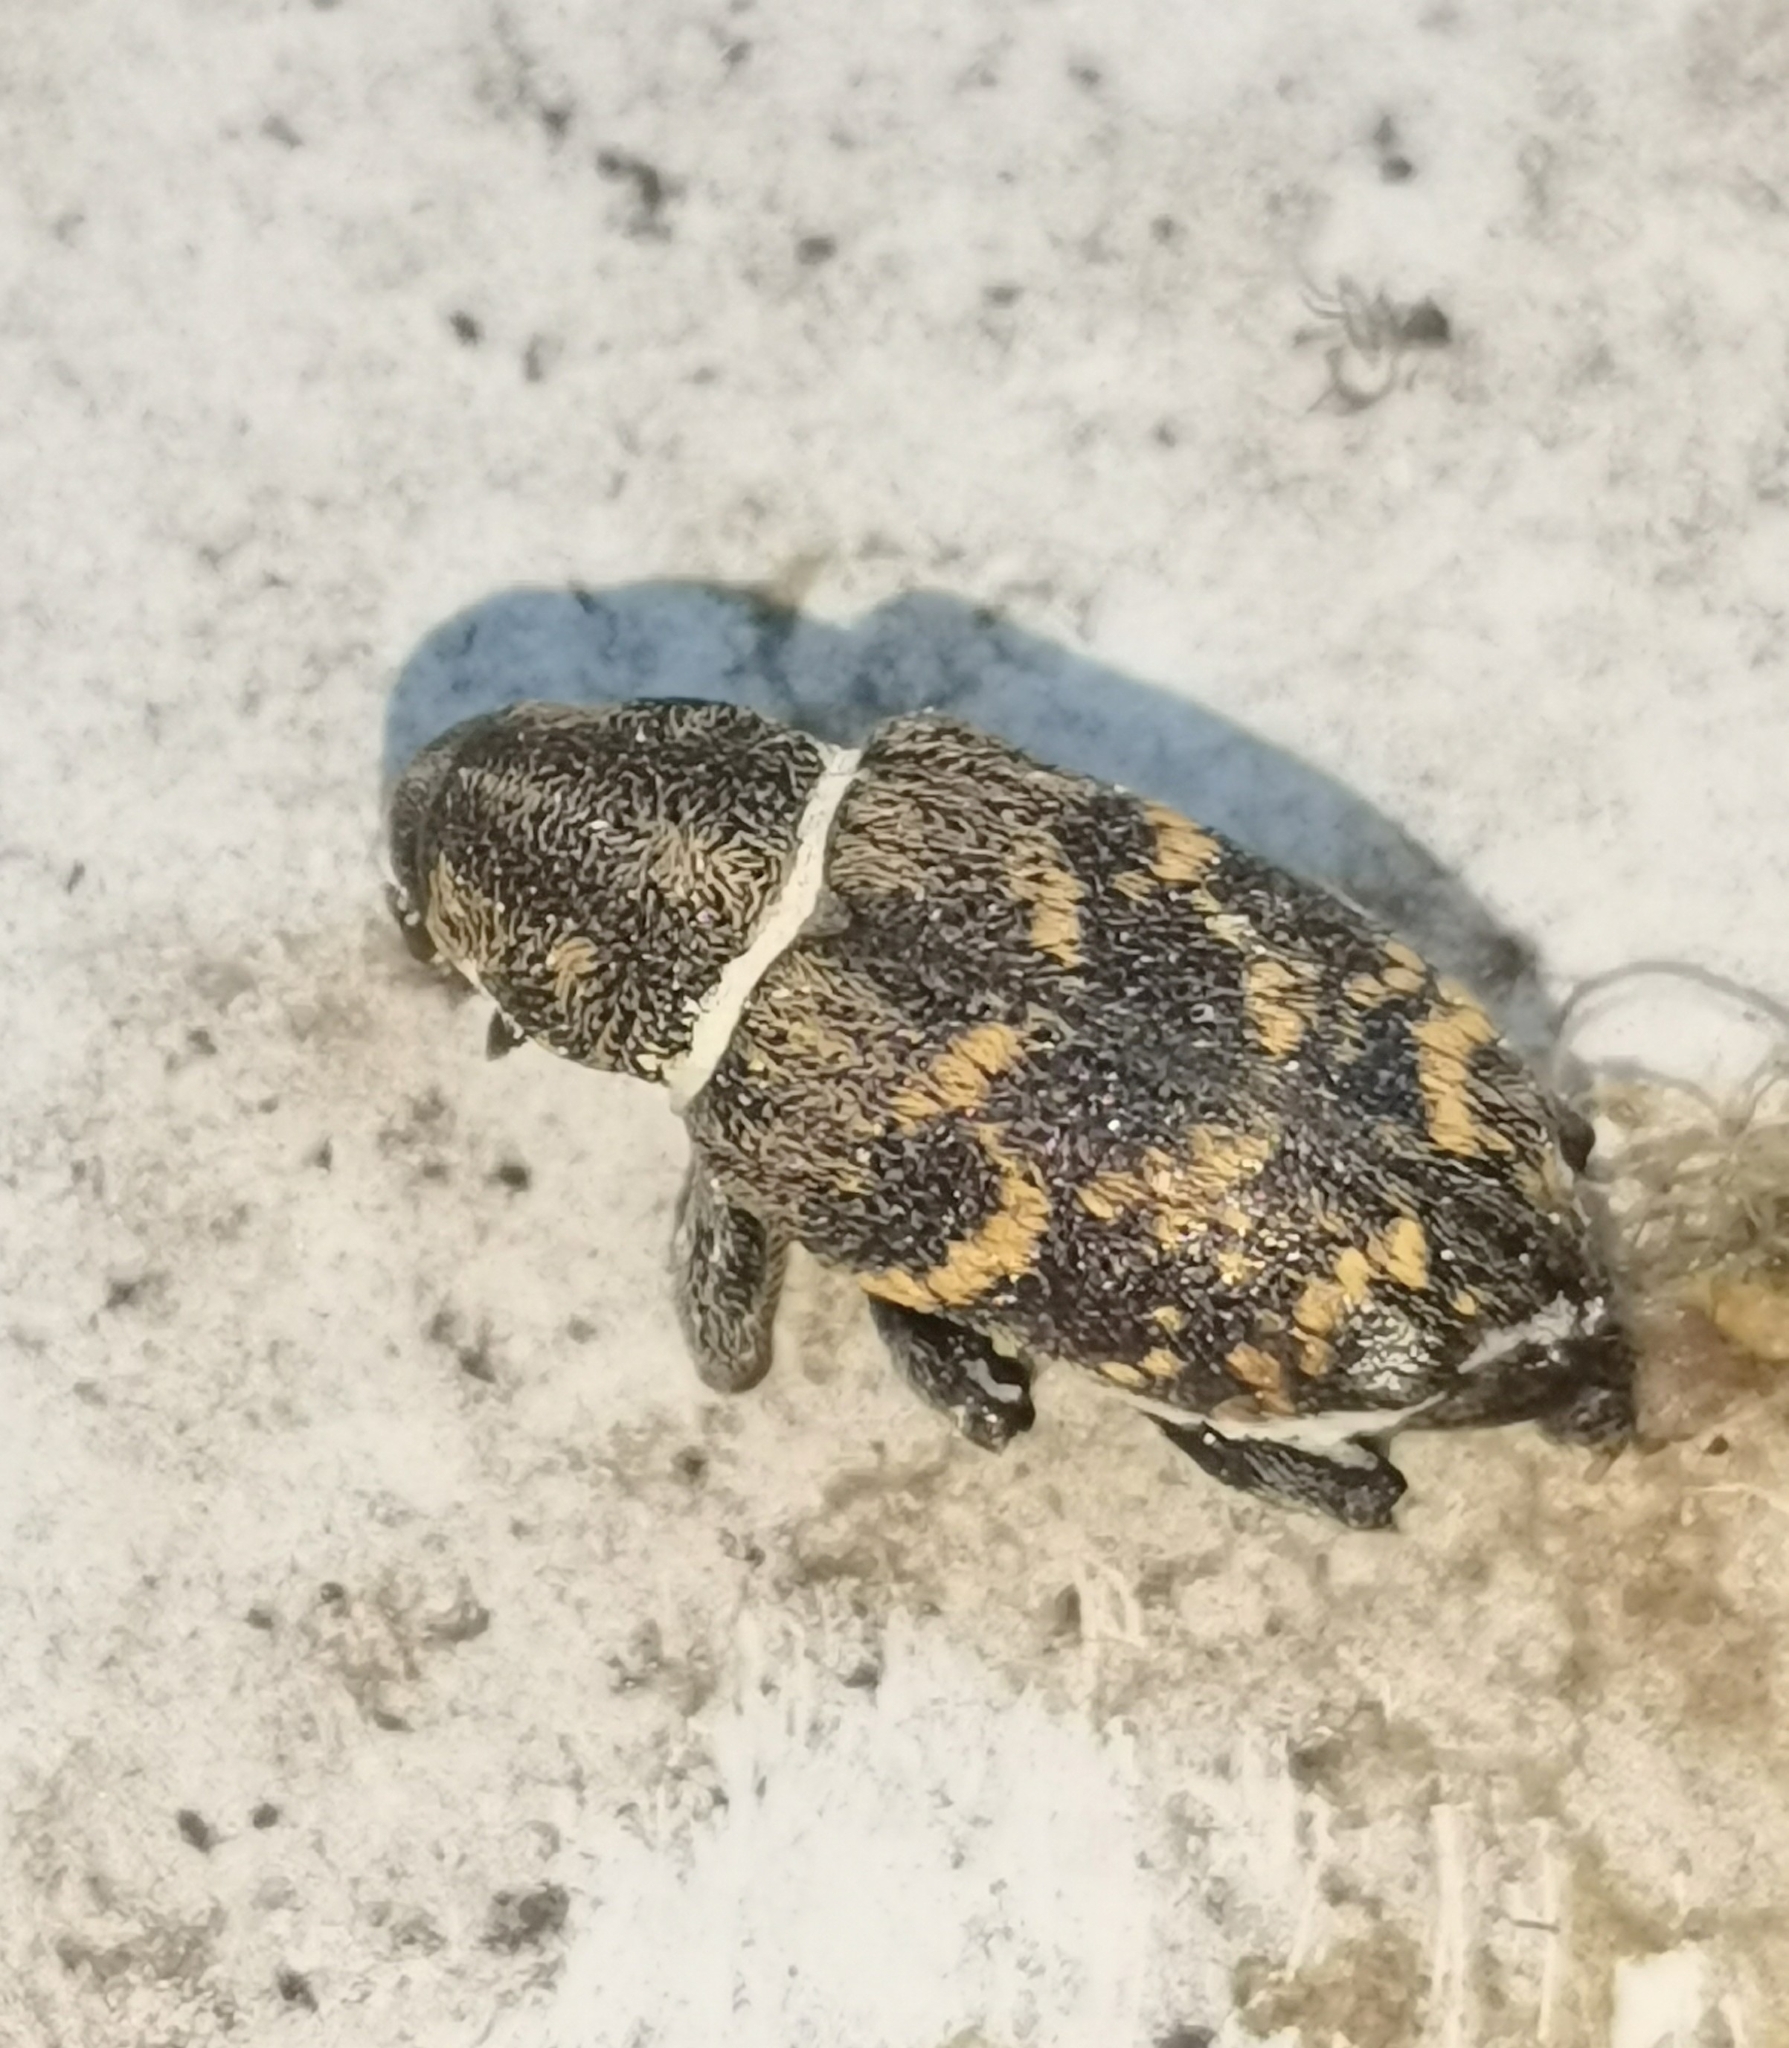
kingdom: Animalia
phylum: Arthropoda
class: Insecta
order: Coleoptera
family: Curculionidae
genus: Hylobius
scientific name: Hylobius abietis
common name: Large pine weevil
